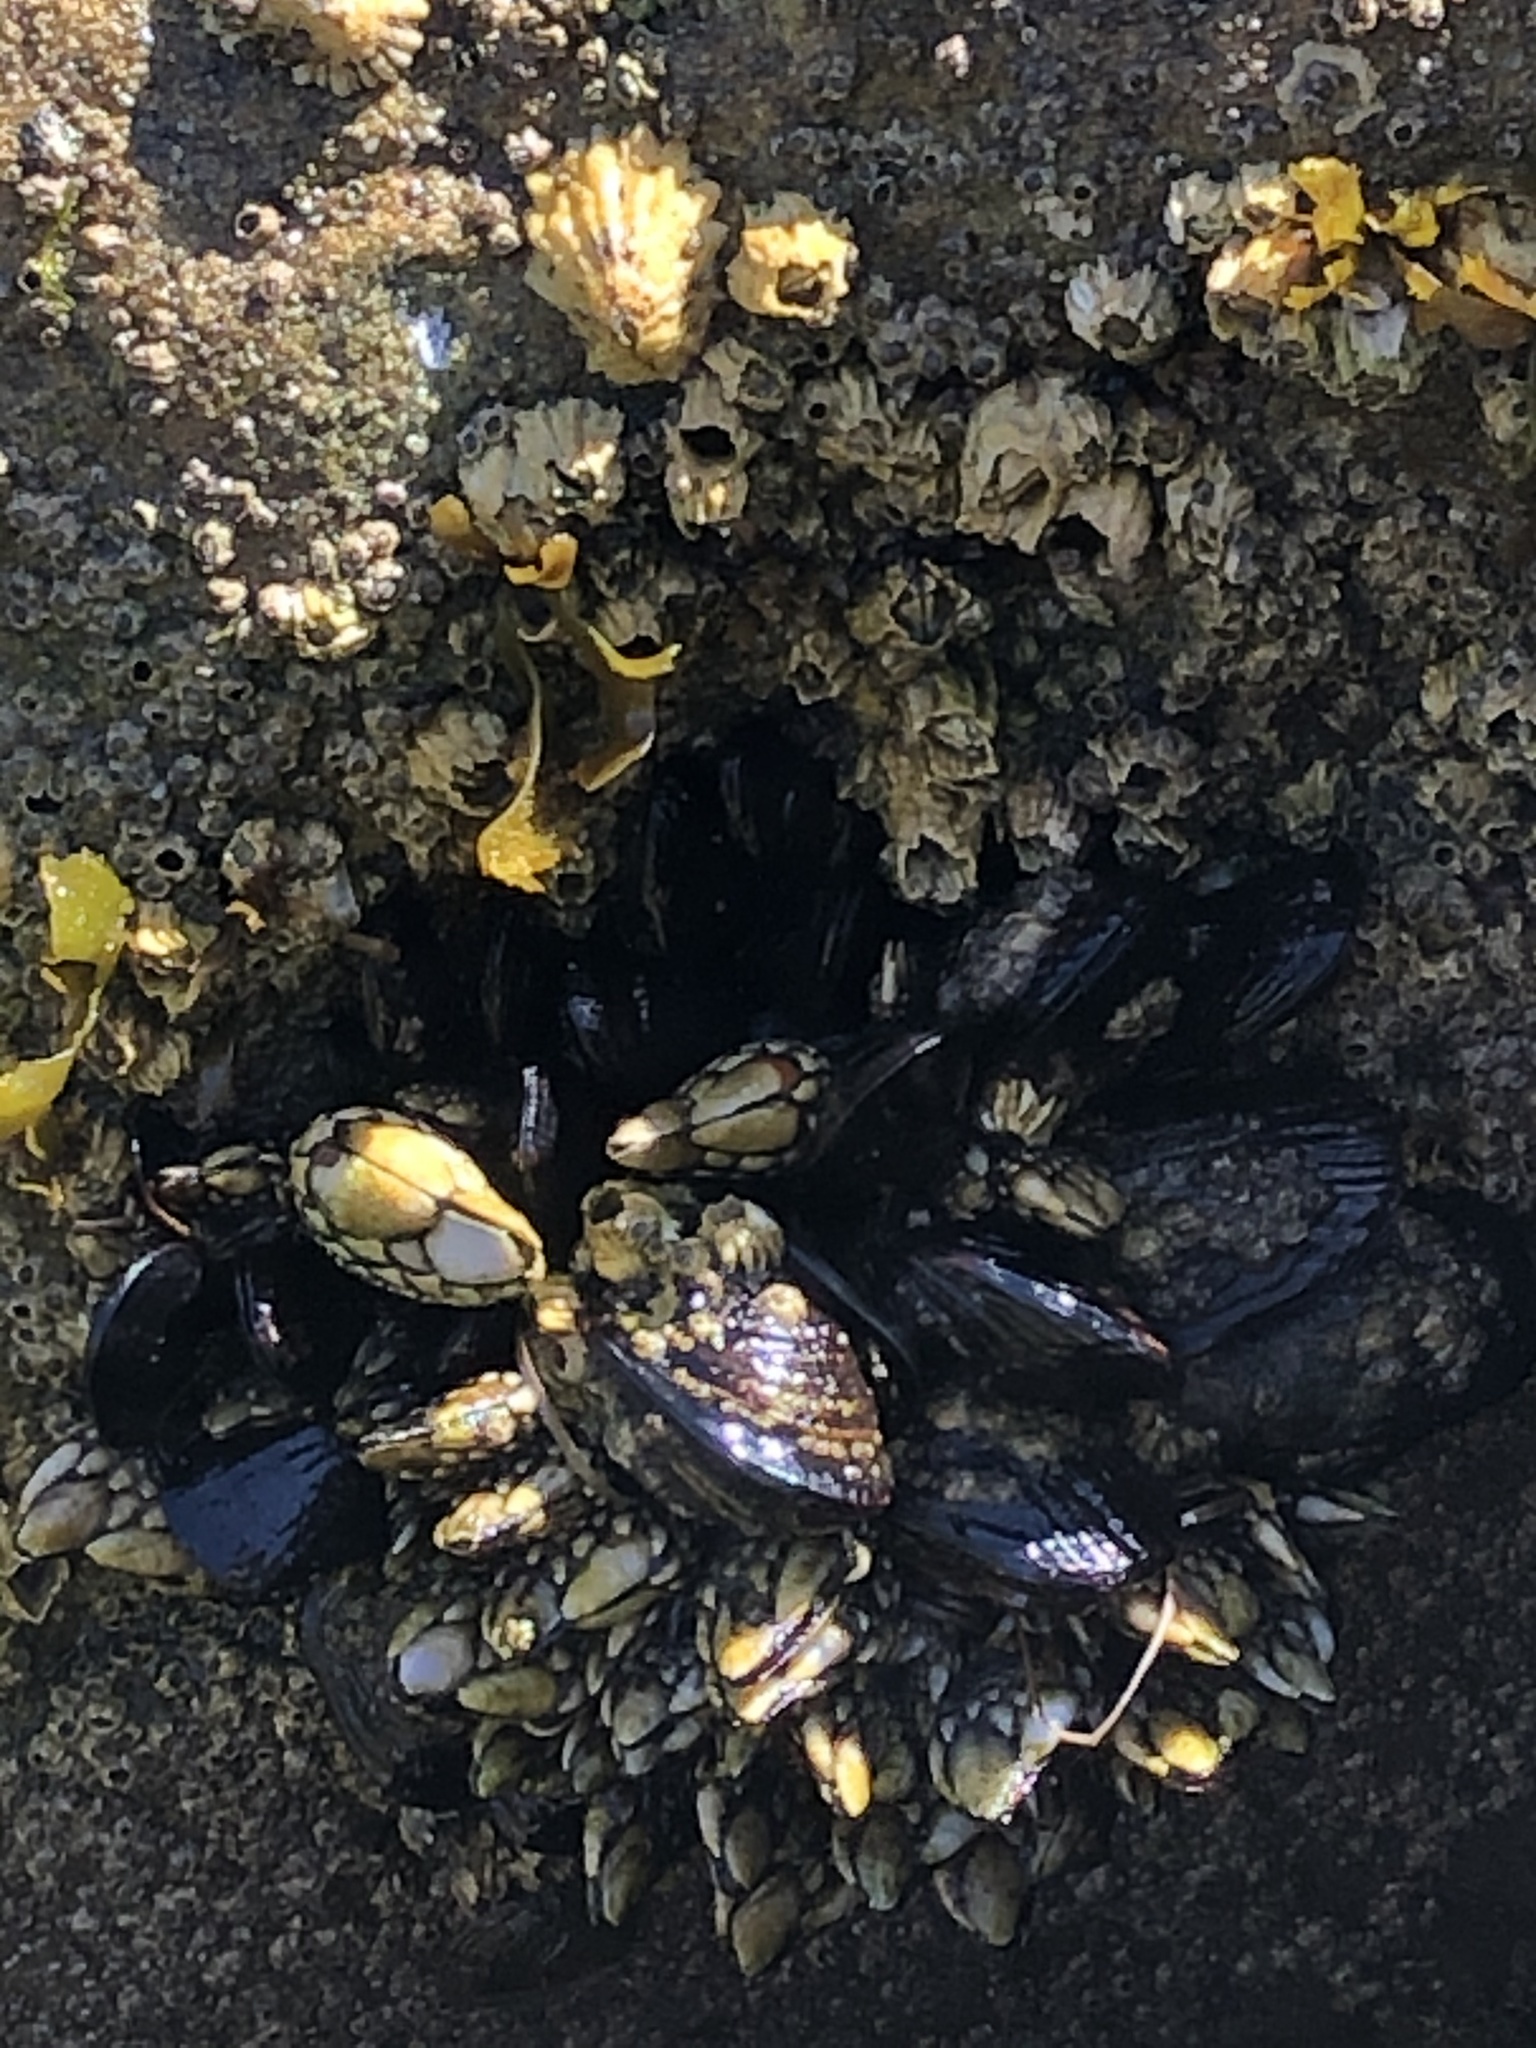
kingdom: Animalia
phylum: Mollusca
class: Bivalvia
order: Mytilida
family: Mytilidae
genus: Mytilus
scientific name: Mytilus californianus
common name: California mussel
